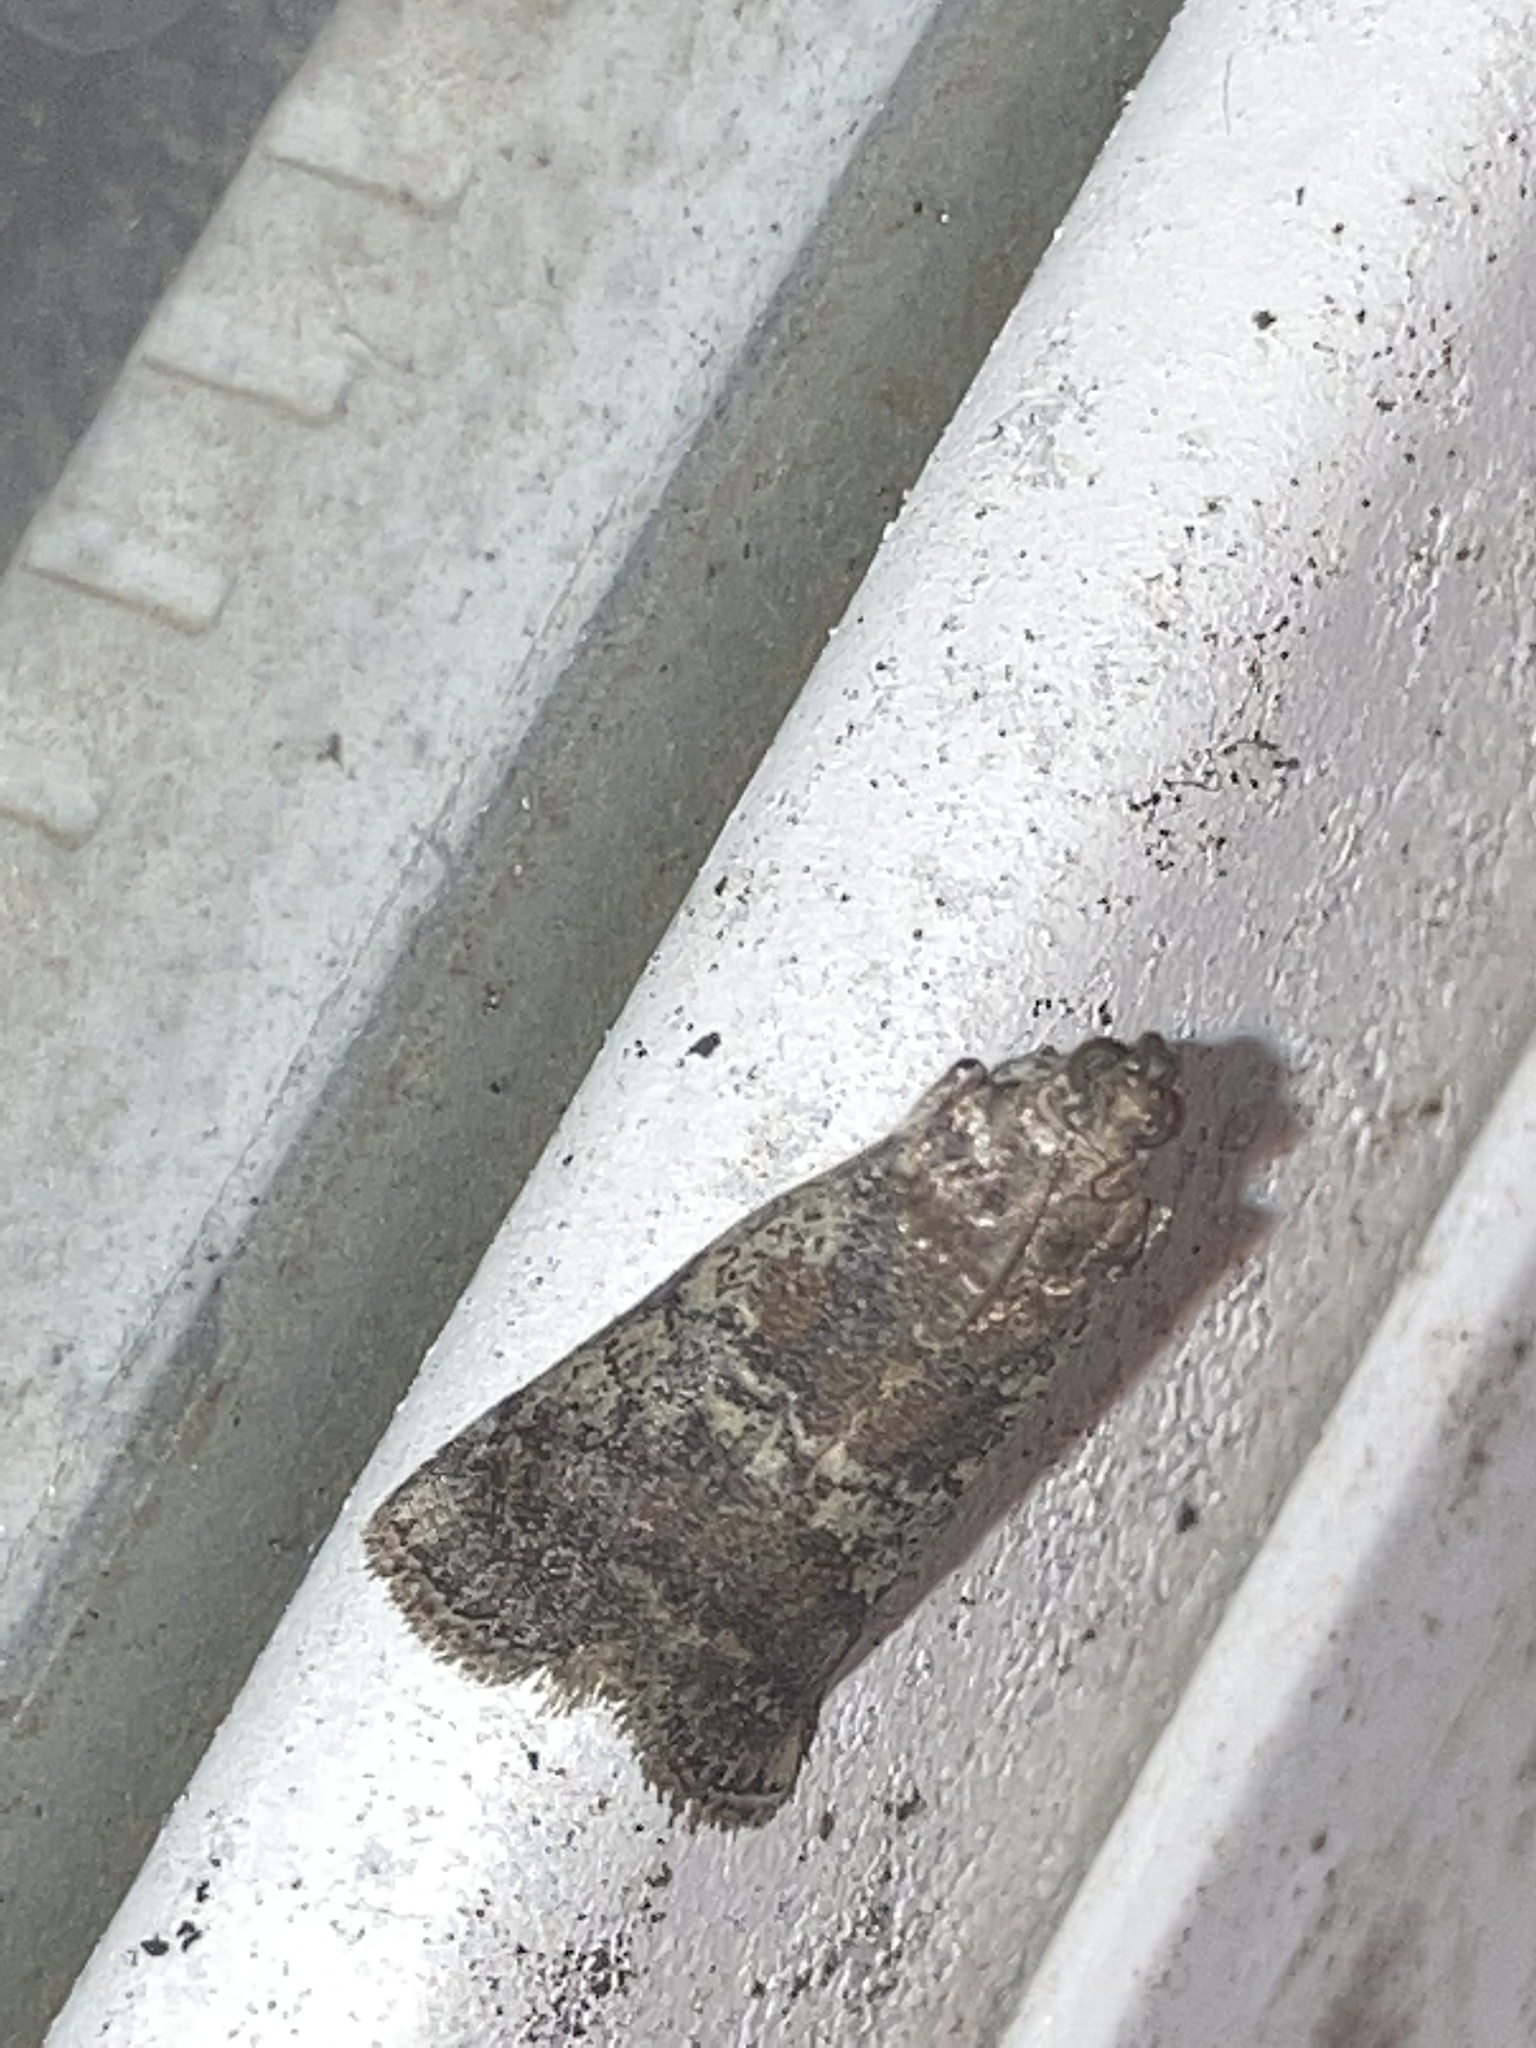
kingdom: Animalia
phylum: Arthropoda
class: Insecta
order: Lepidoptera
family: Pyralidae
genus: Salebriaria
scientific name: Salebriaria squamopalpiella
